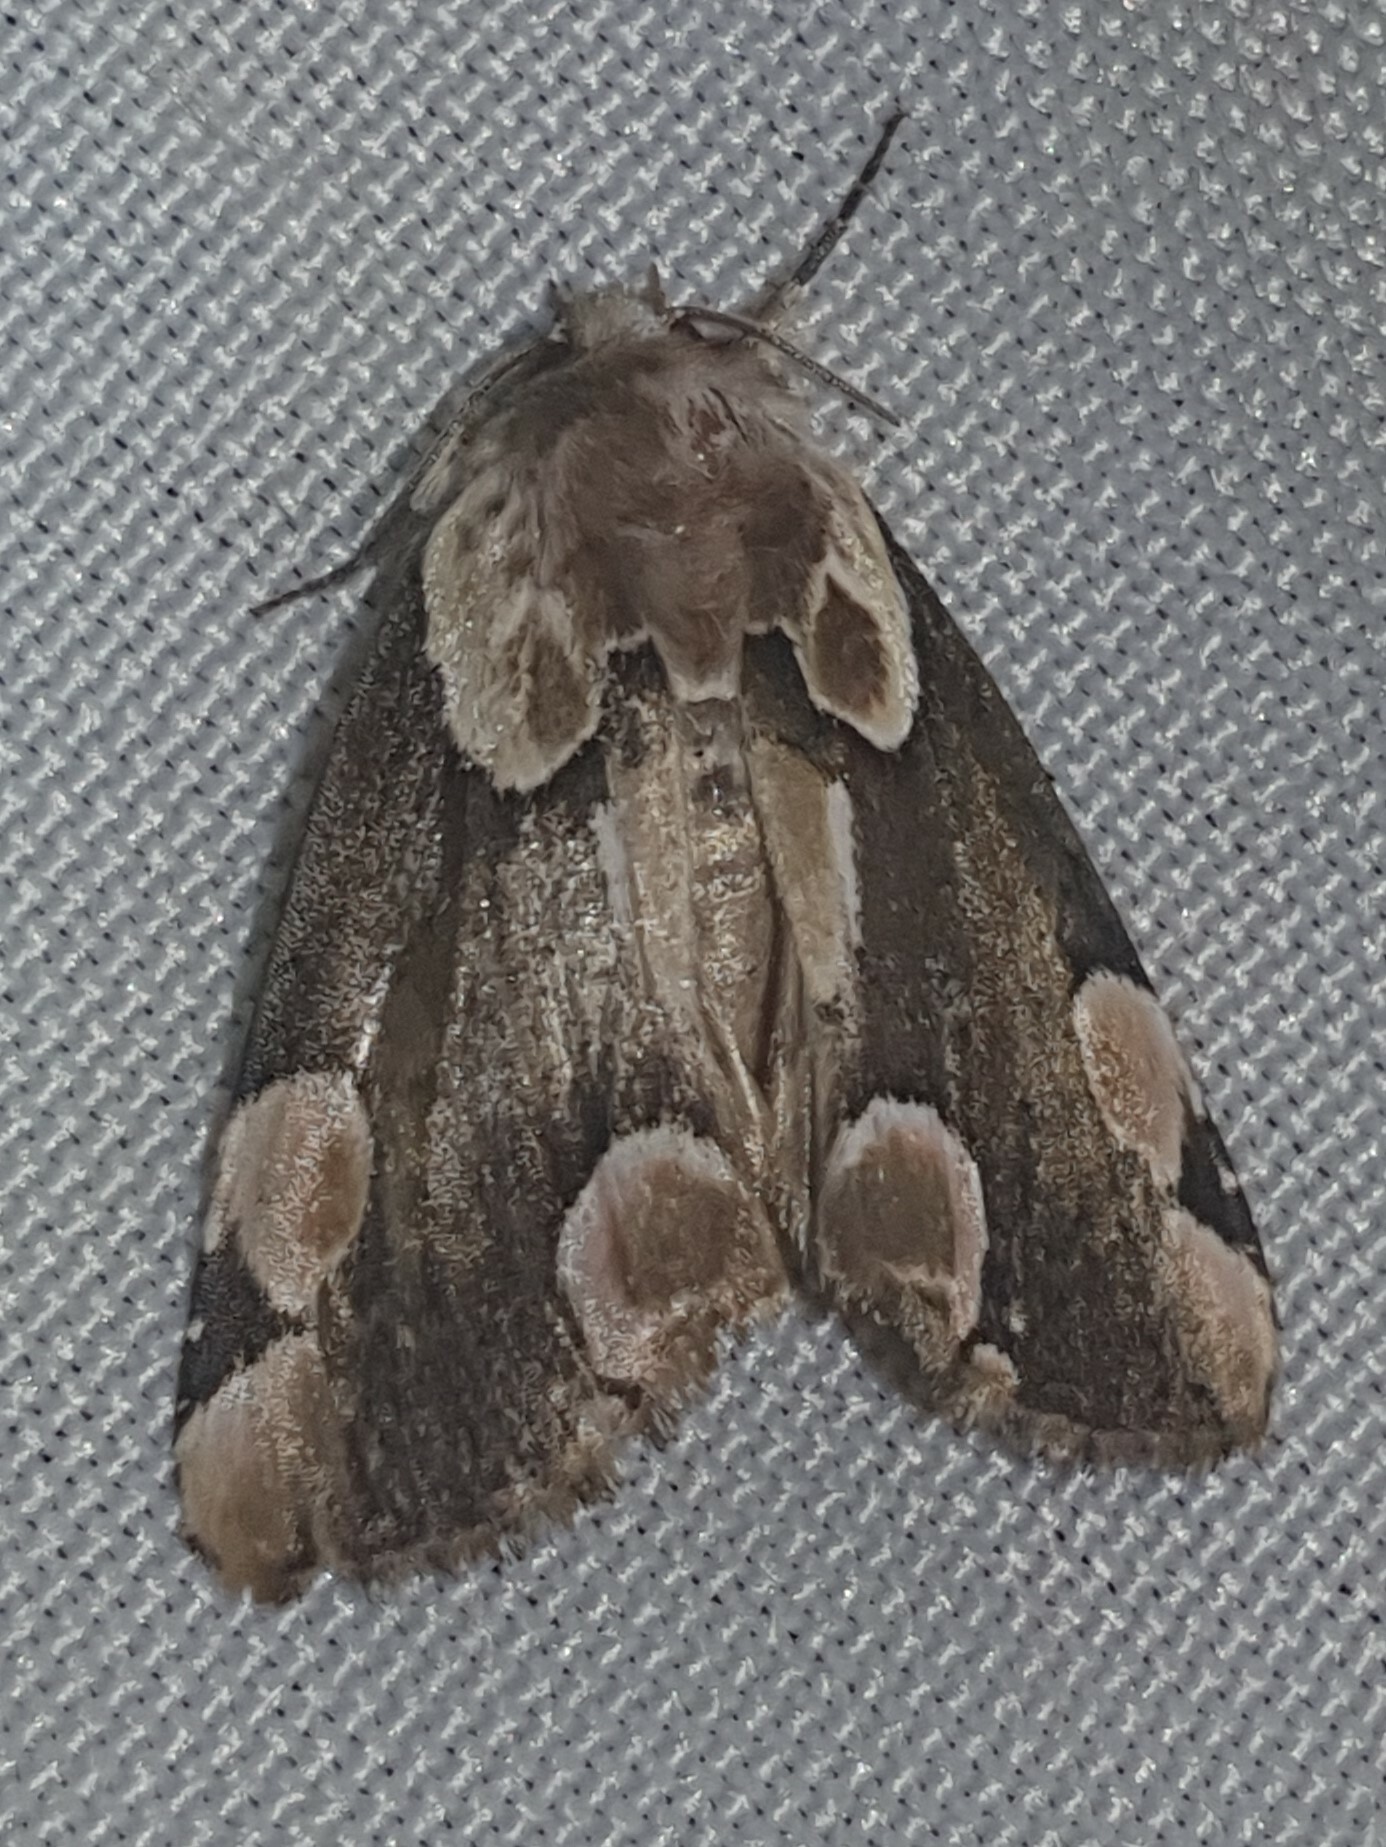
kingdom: Animalia
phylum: Arthropoda
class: Insecta
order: Lepidoptera
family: Drepanidae
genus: Thyatira
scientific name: Thyatira batis
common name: Peach blossom
